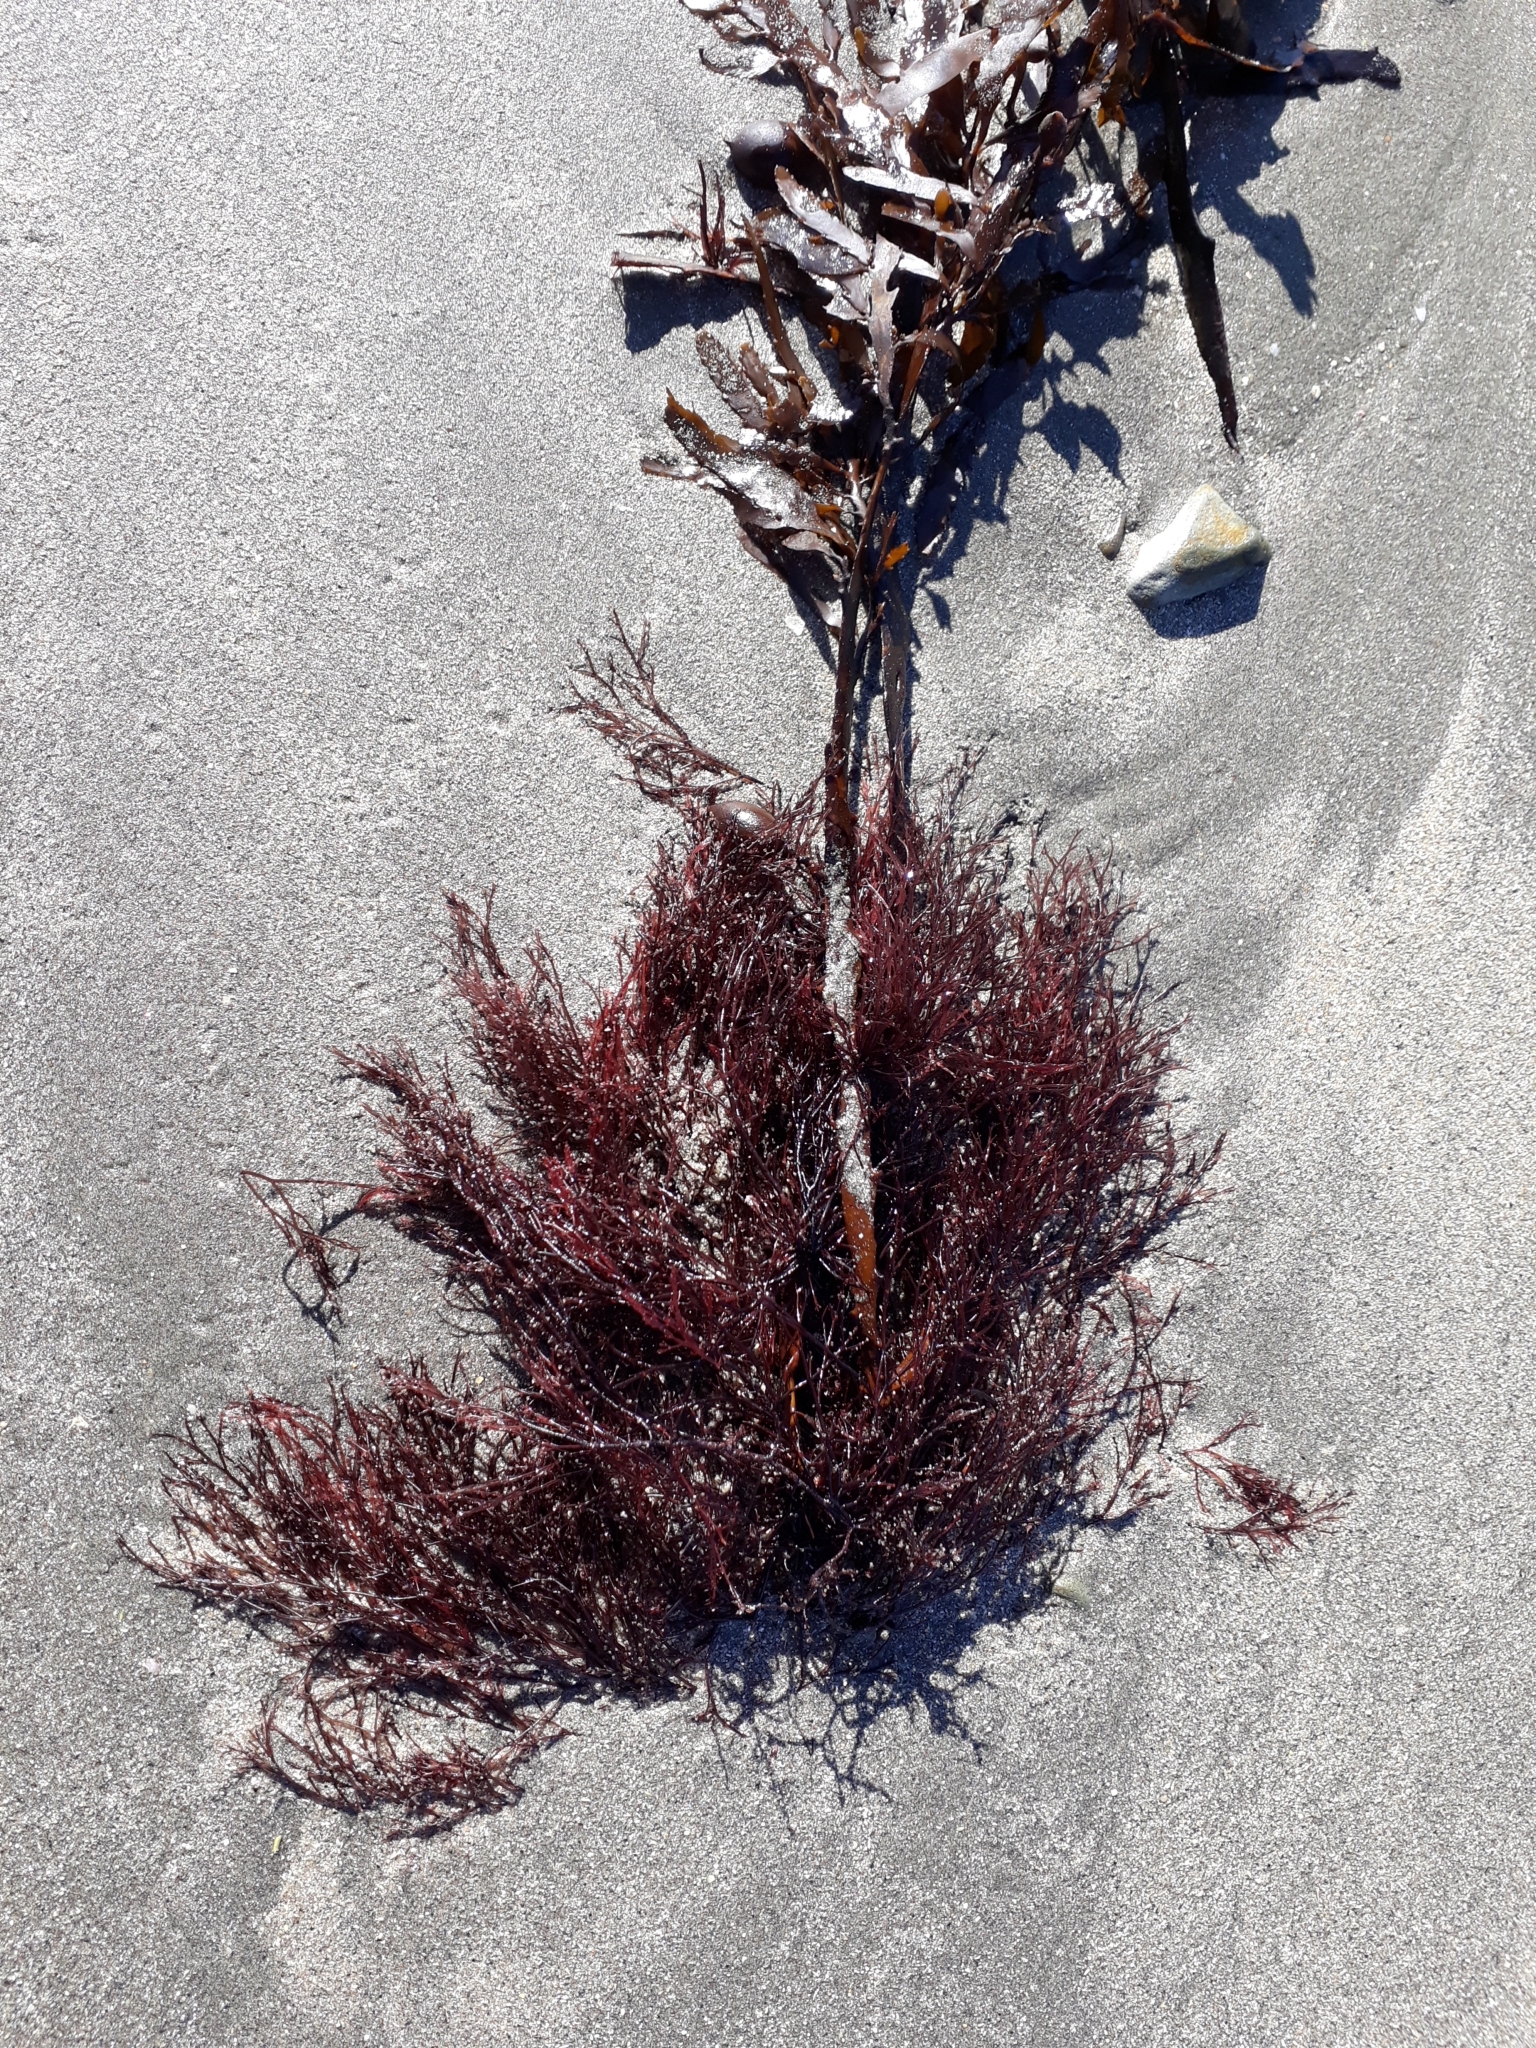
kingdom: Plantae
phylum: Rhodophyta
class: Florideophyceae
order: Ceramiales
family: Rhodomelaceae
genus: Polysiphonia
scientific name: Polysiphonia
